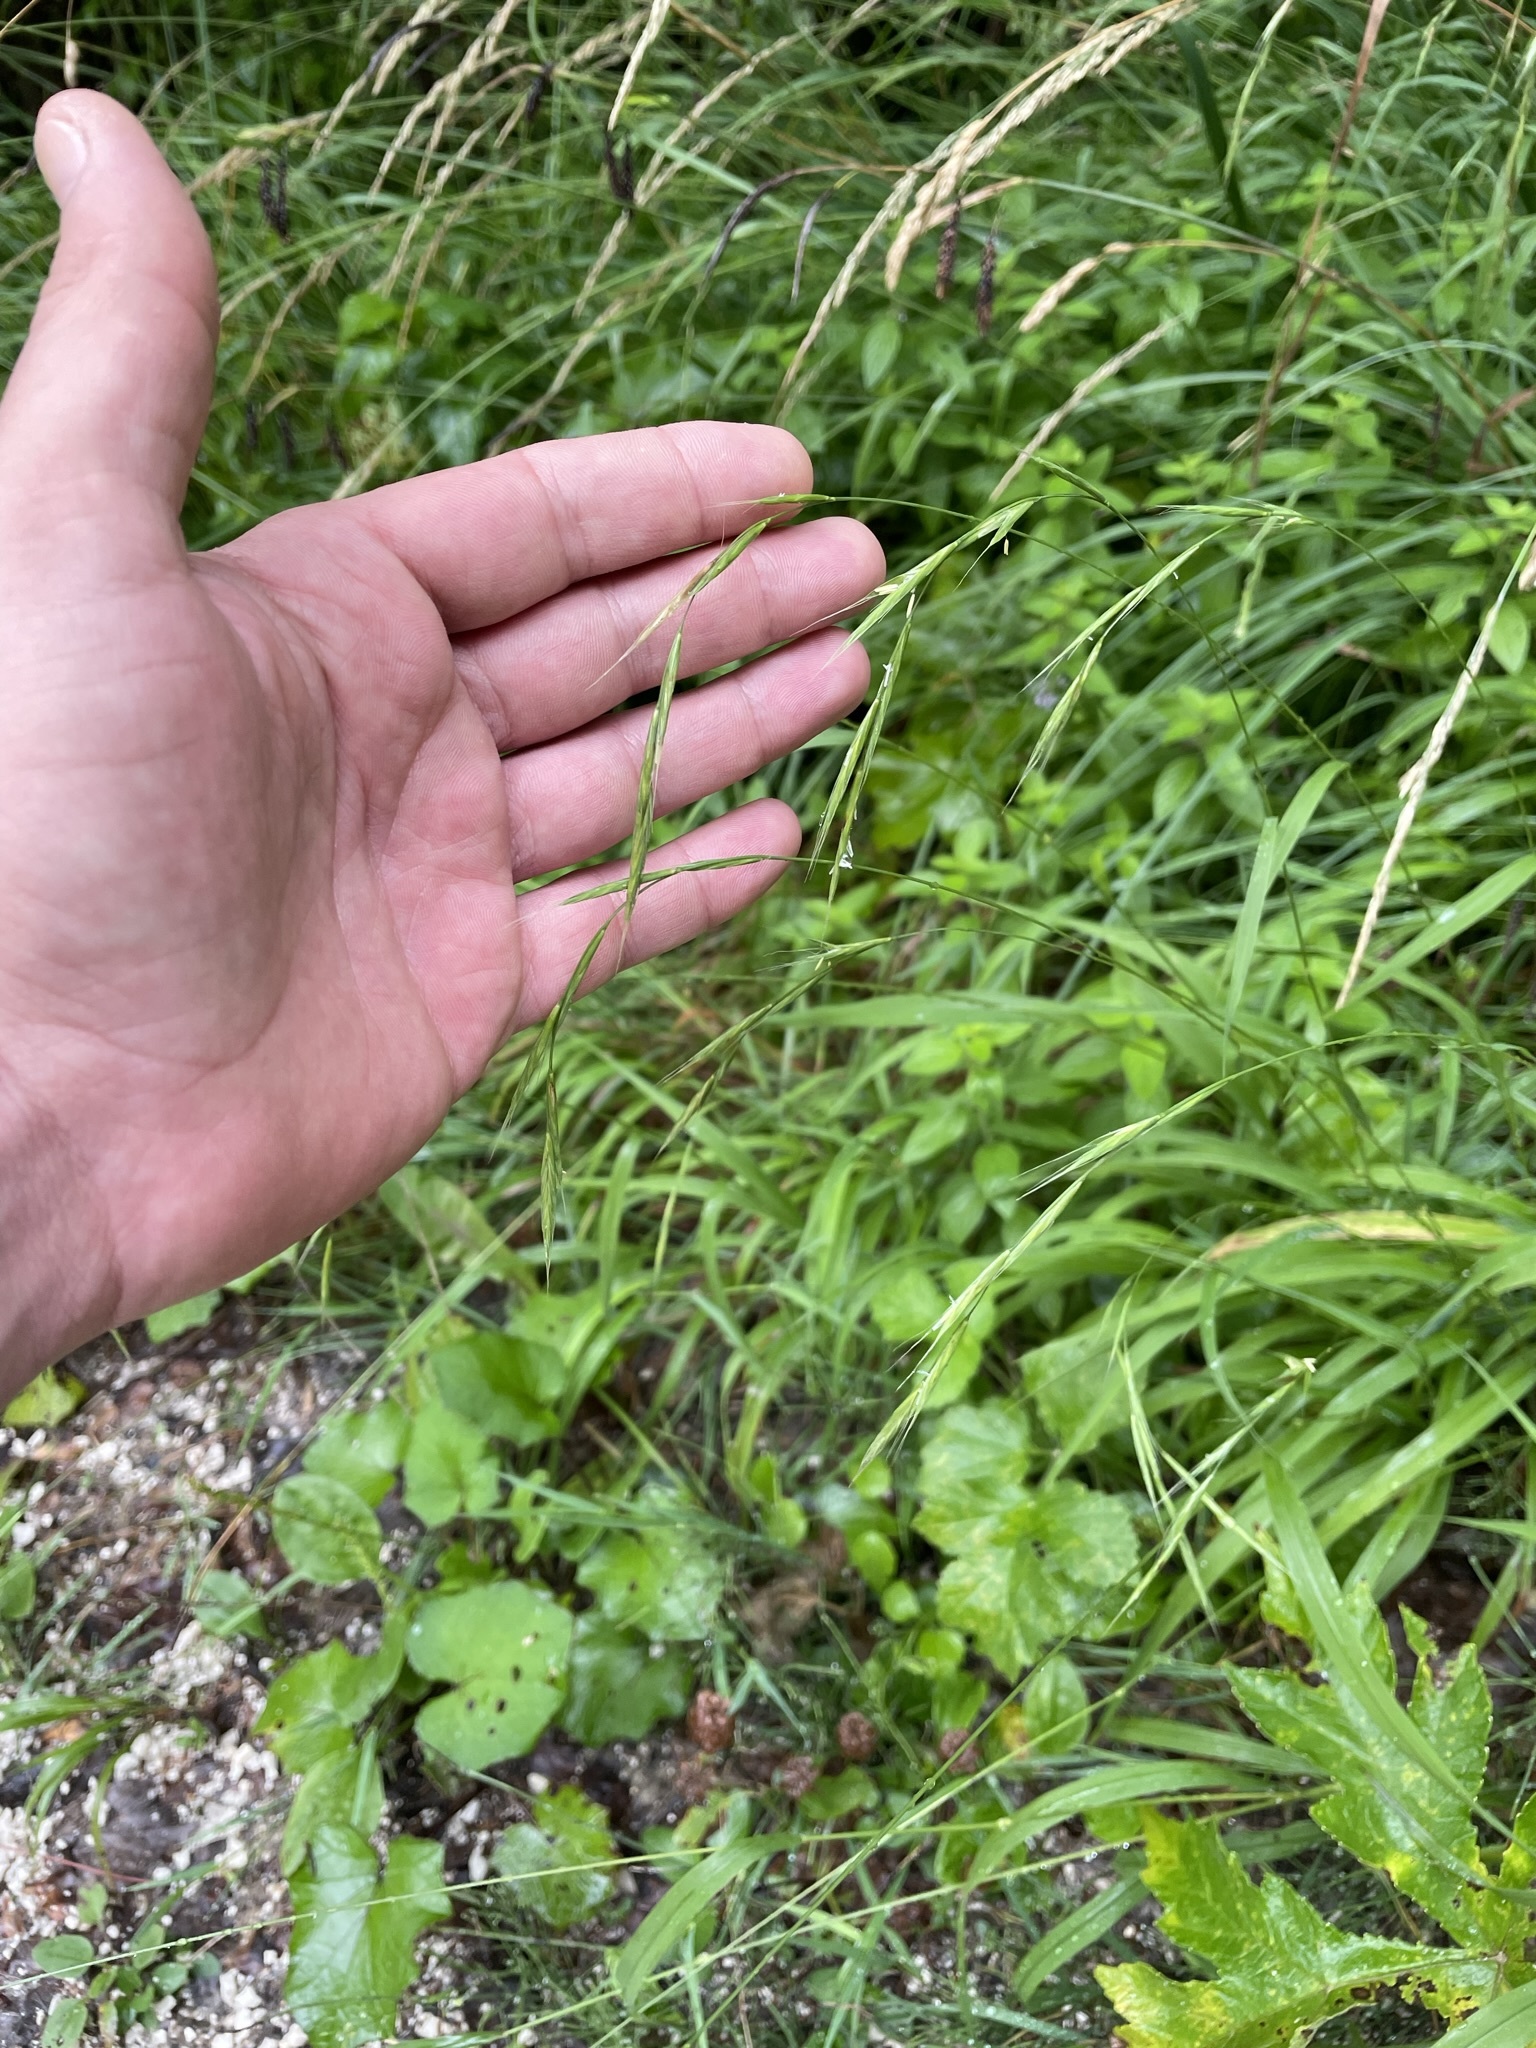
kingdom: Plantae
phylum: Tracheophyta
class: Liliopsida
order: Poales
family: Poaceae
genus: Brachypodium
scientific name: Brachypodium sylvaticum
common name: False-brome
